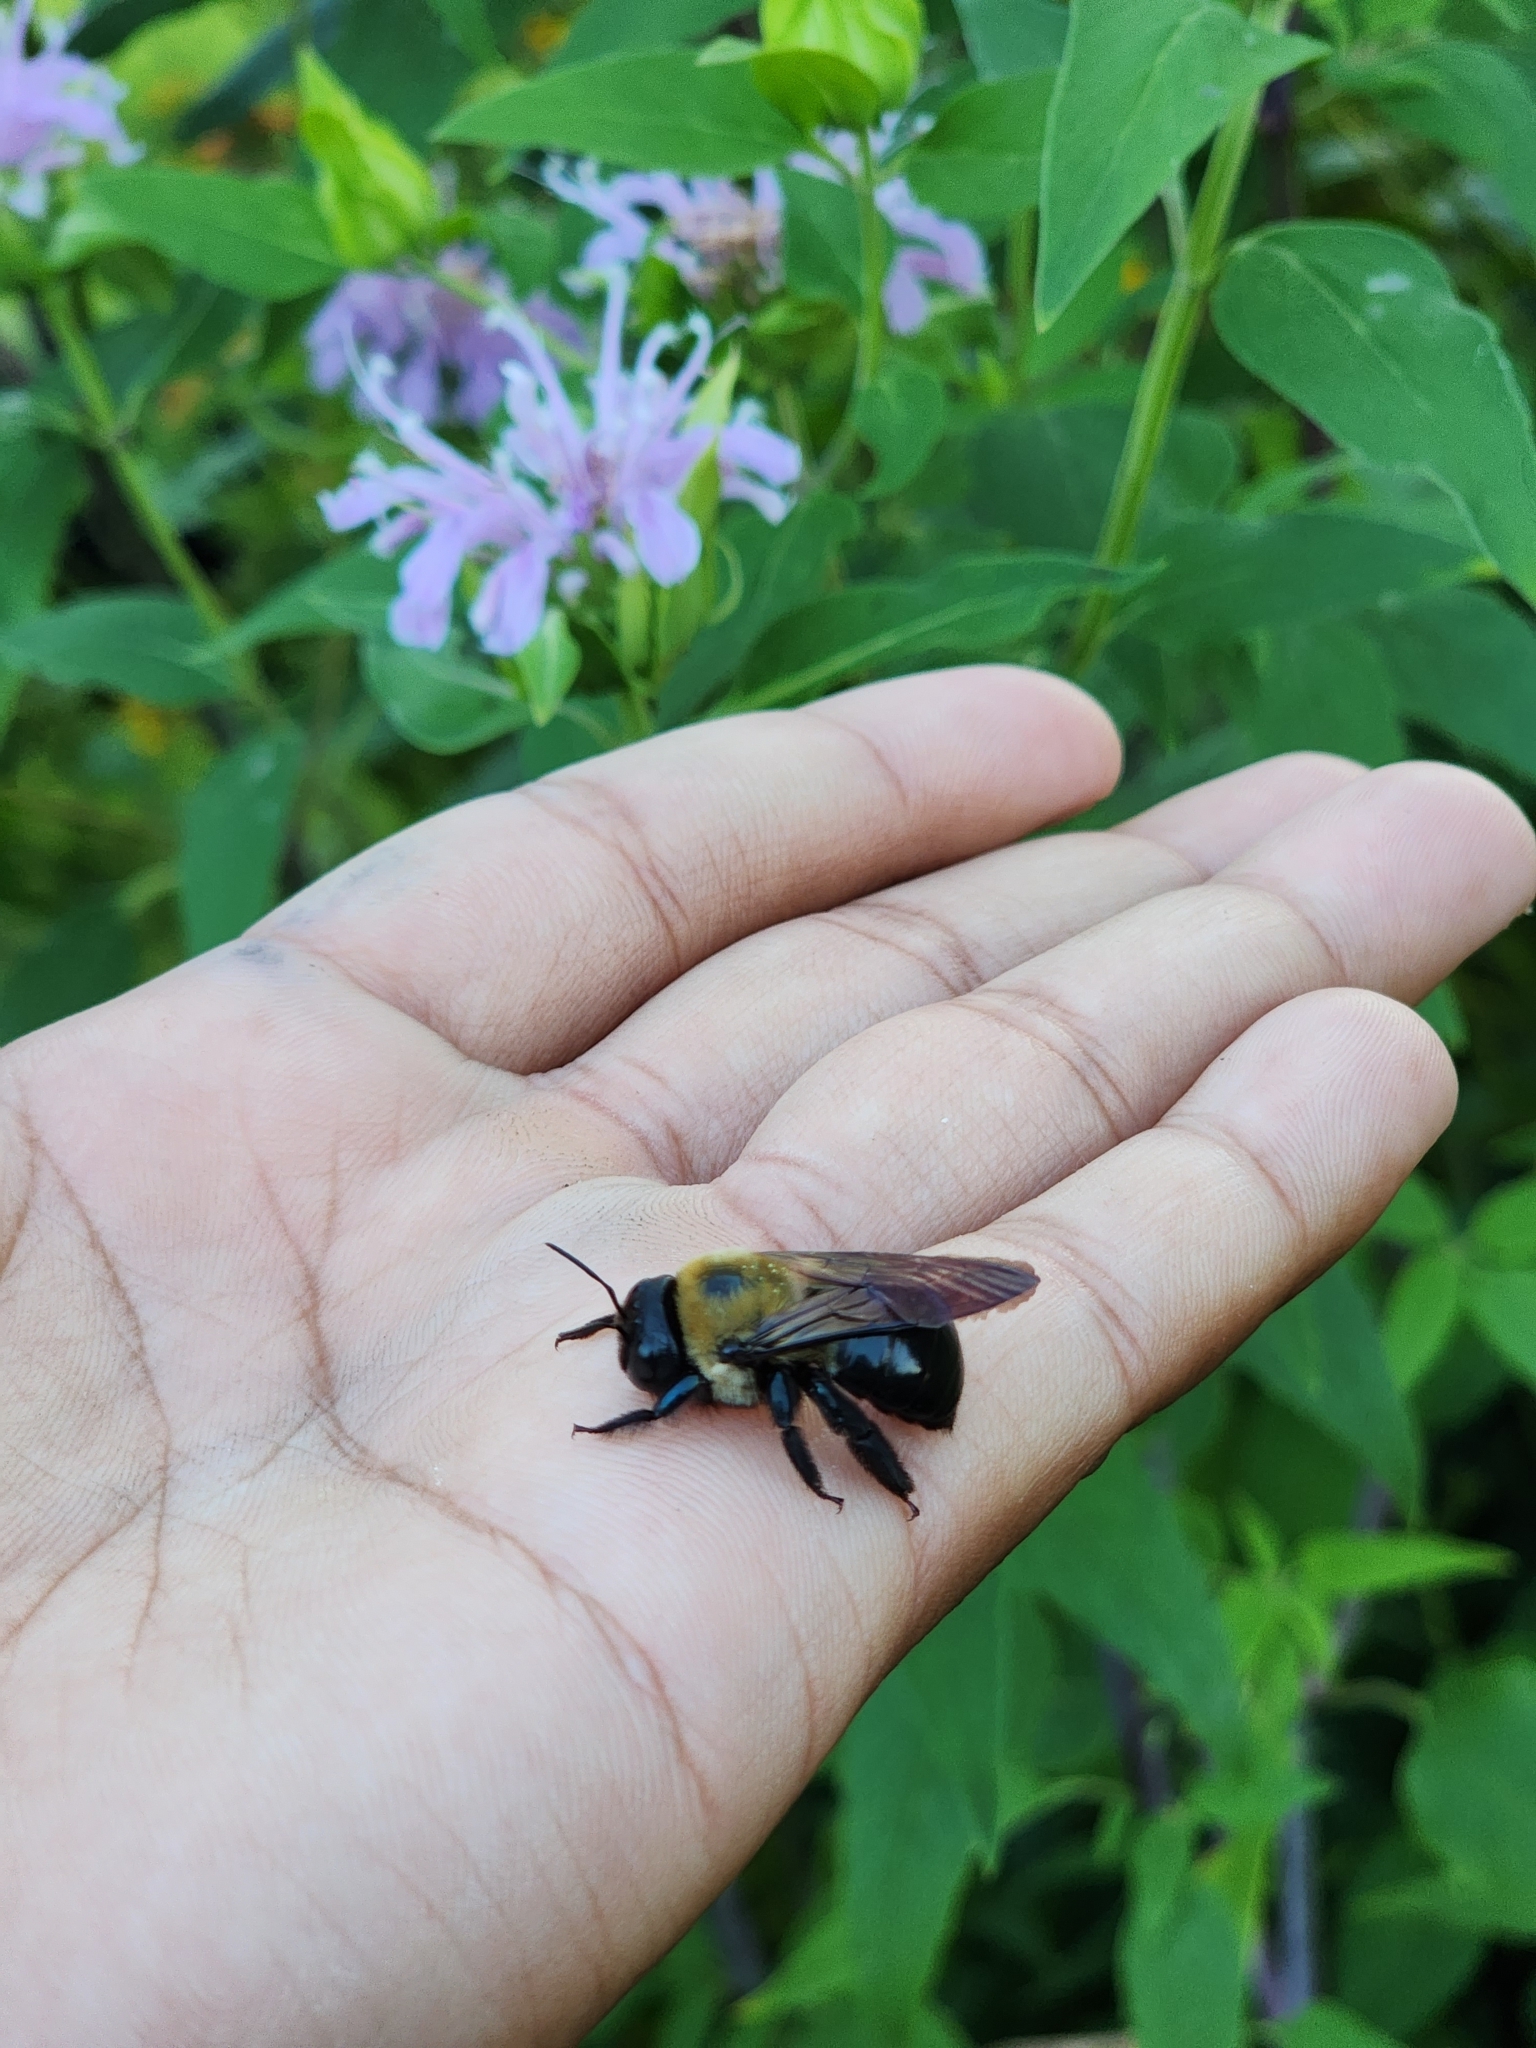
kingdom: Animalia
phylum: Arthropoda
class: Insecta
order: Hymenoptera
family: Apidae
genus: Xylocopa
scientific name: Xylocopa virginica
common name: Carpenter bee
